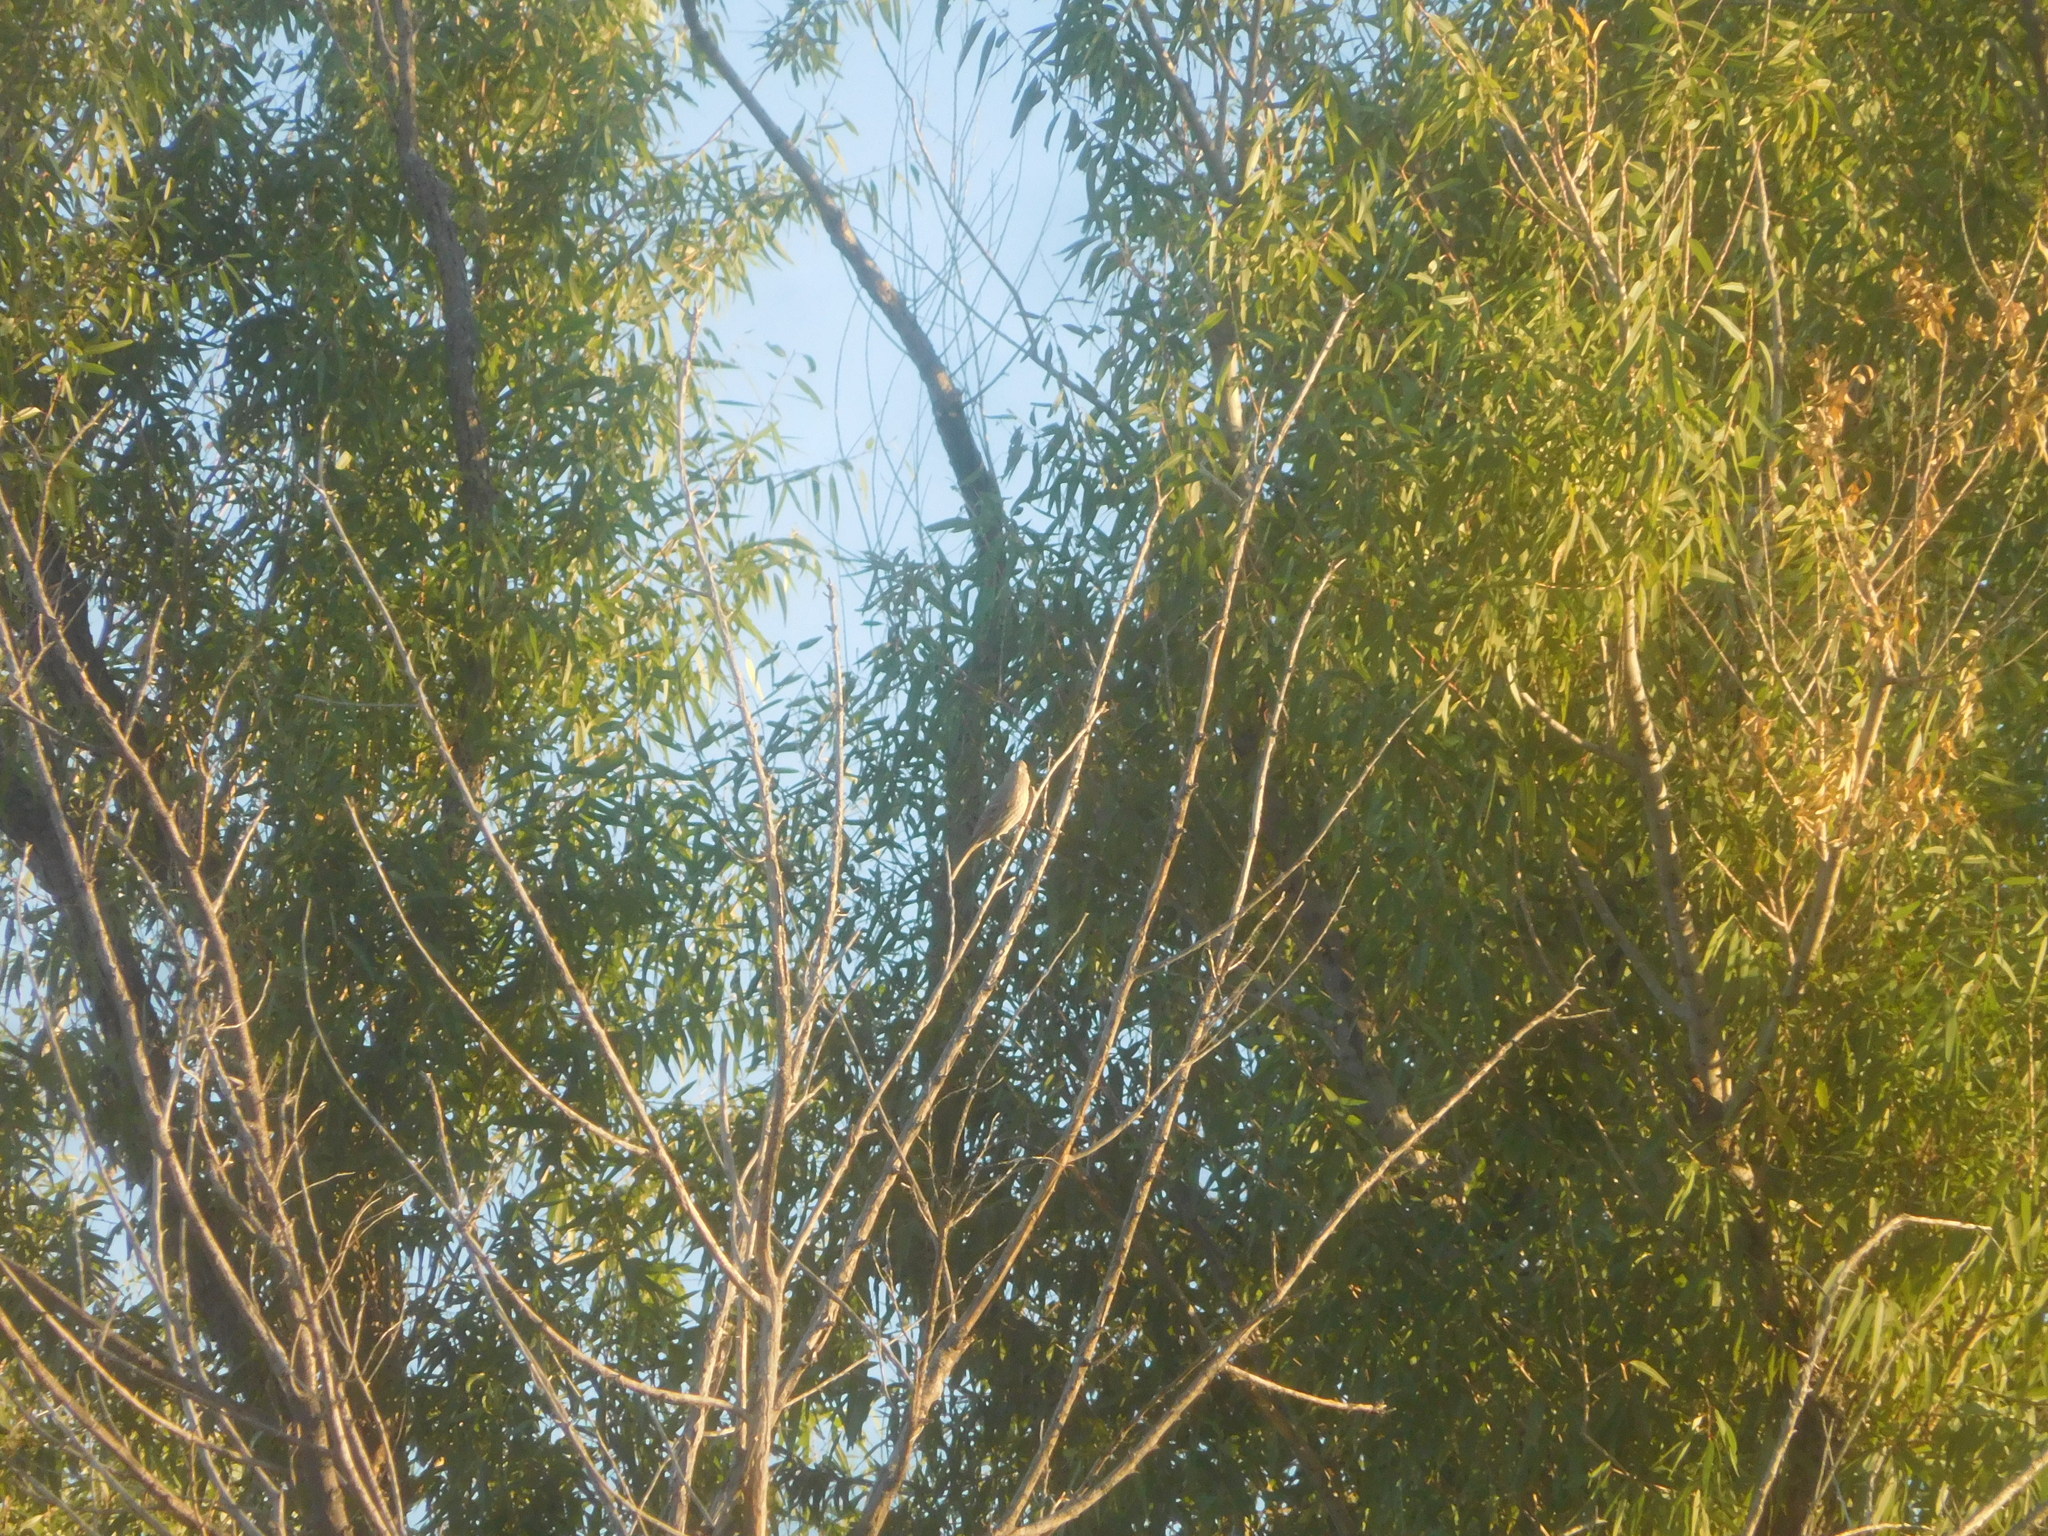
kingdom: Animalia
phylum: Chordata
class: Aves
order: Passeriformes
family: Fringillidae
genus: Haemorhous
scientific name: Haemorhous mexicanus
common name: House finch
